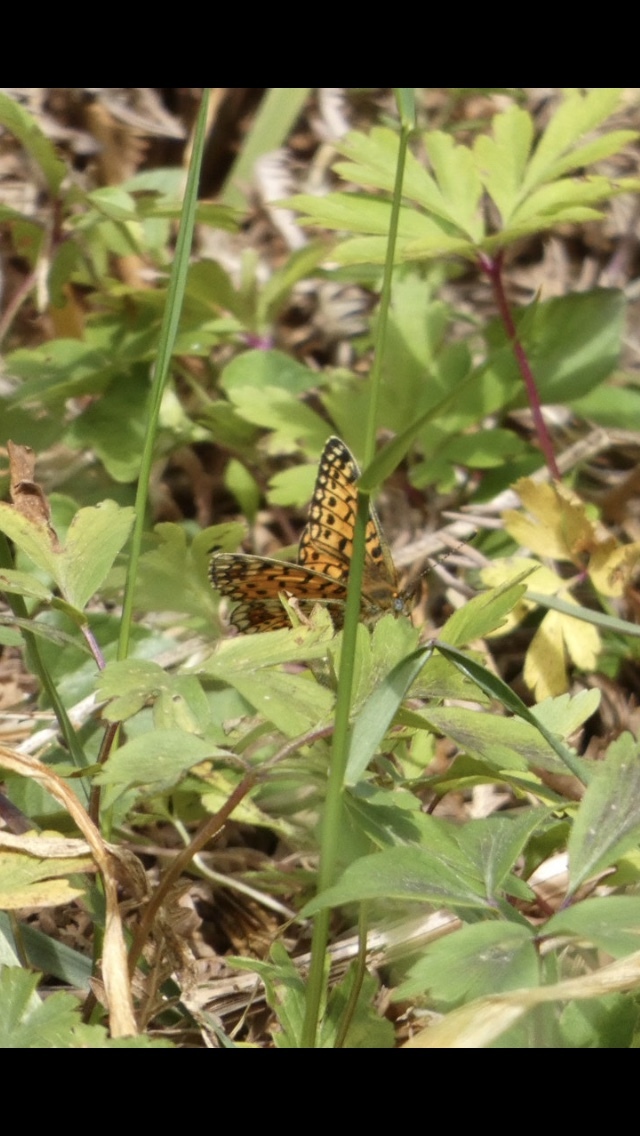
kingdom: Animalia
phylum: Arthropoda
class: Insecta
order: Lepidoptera
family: Nymphalidae
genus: Boloria
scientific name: Boloria selene
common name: Small pearl-bordered fritillary
